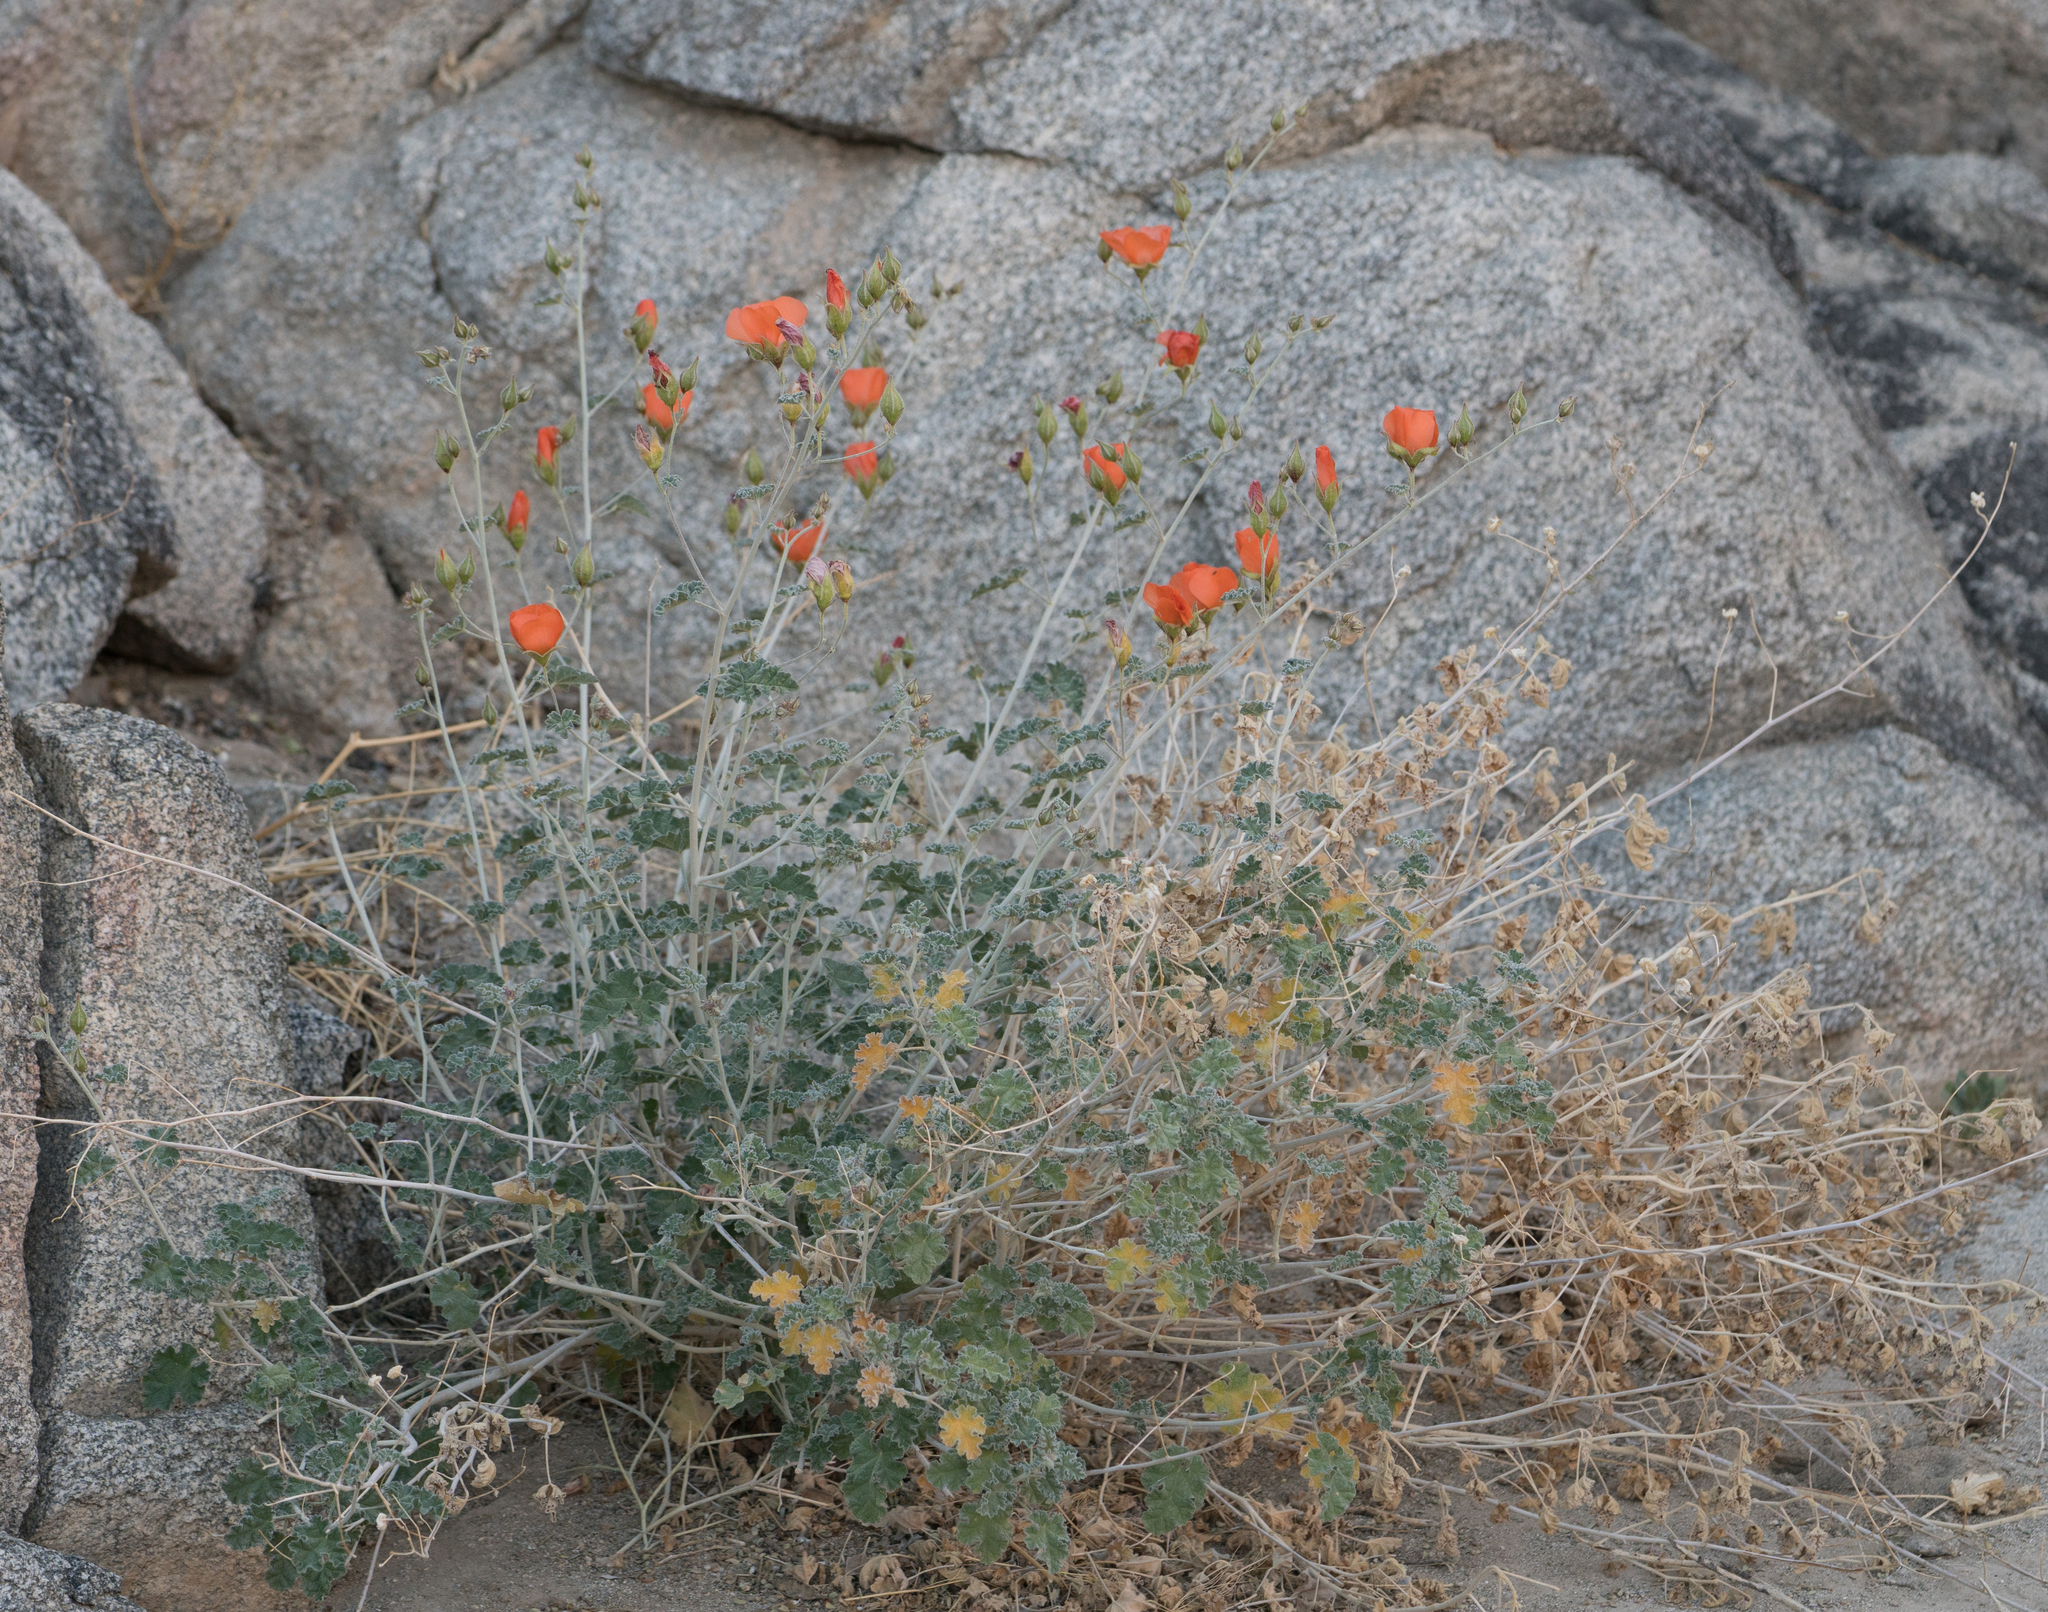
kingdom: Plantae
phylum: Tracheophyta
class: Magnoliopsida
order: Malvales
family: Malvaceae
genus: Sphaeralcea
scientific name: Sphaeralcea ambigua
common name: Apricot globe-mallow
